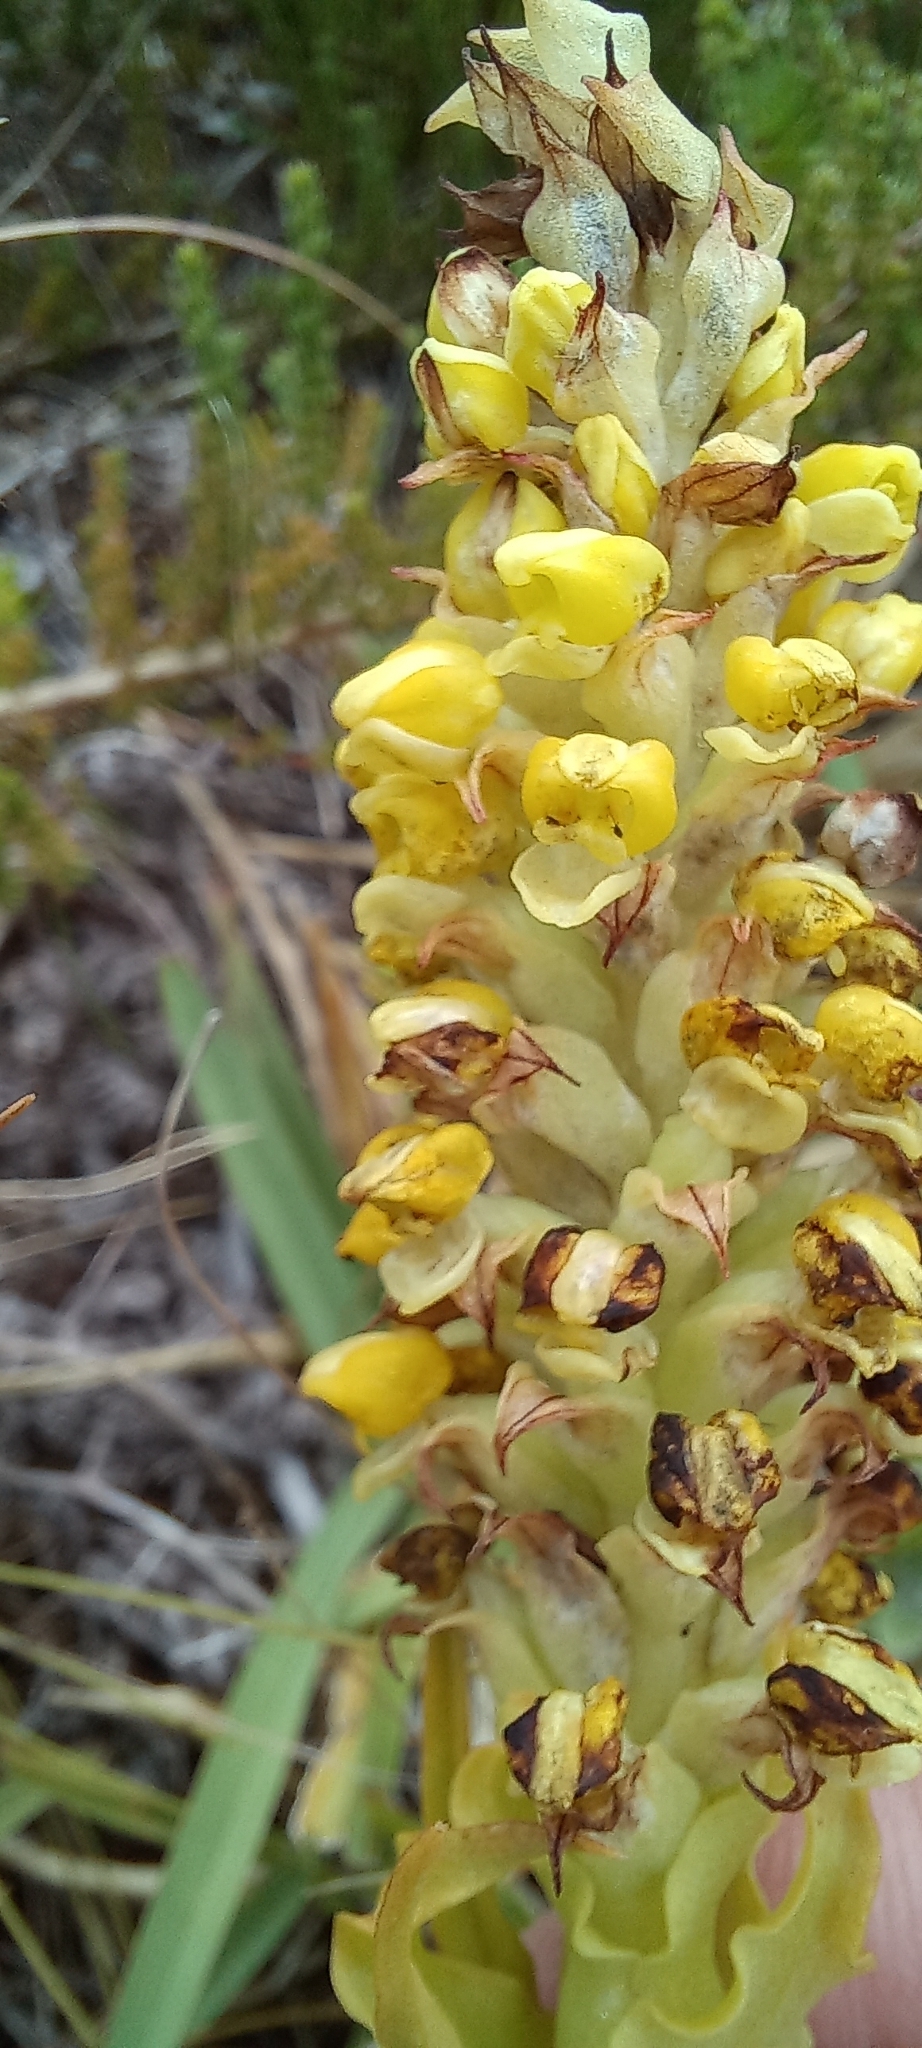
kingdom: Plantae
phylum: Tracheophyta
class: Liliopsida
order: Asparagales
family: Orchidaceae
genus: Corycium
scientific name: Corycium bicolorum
